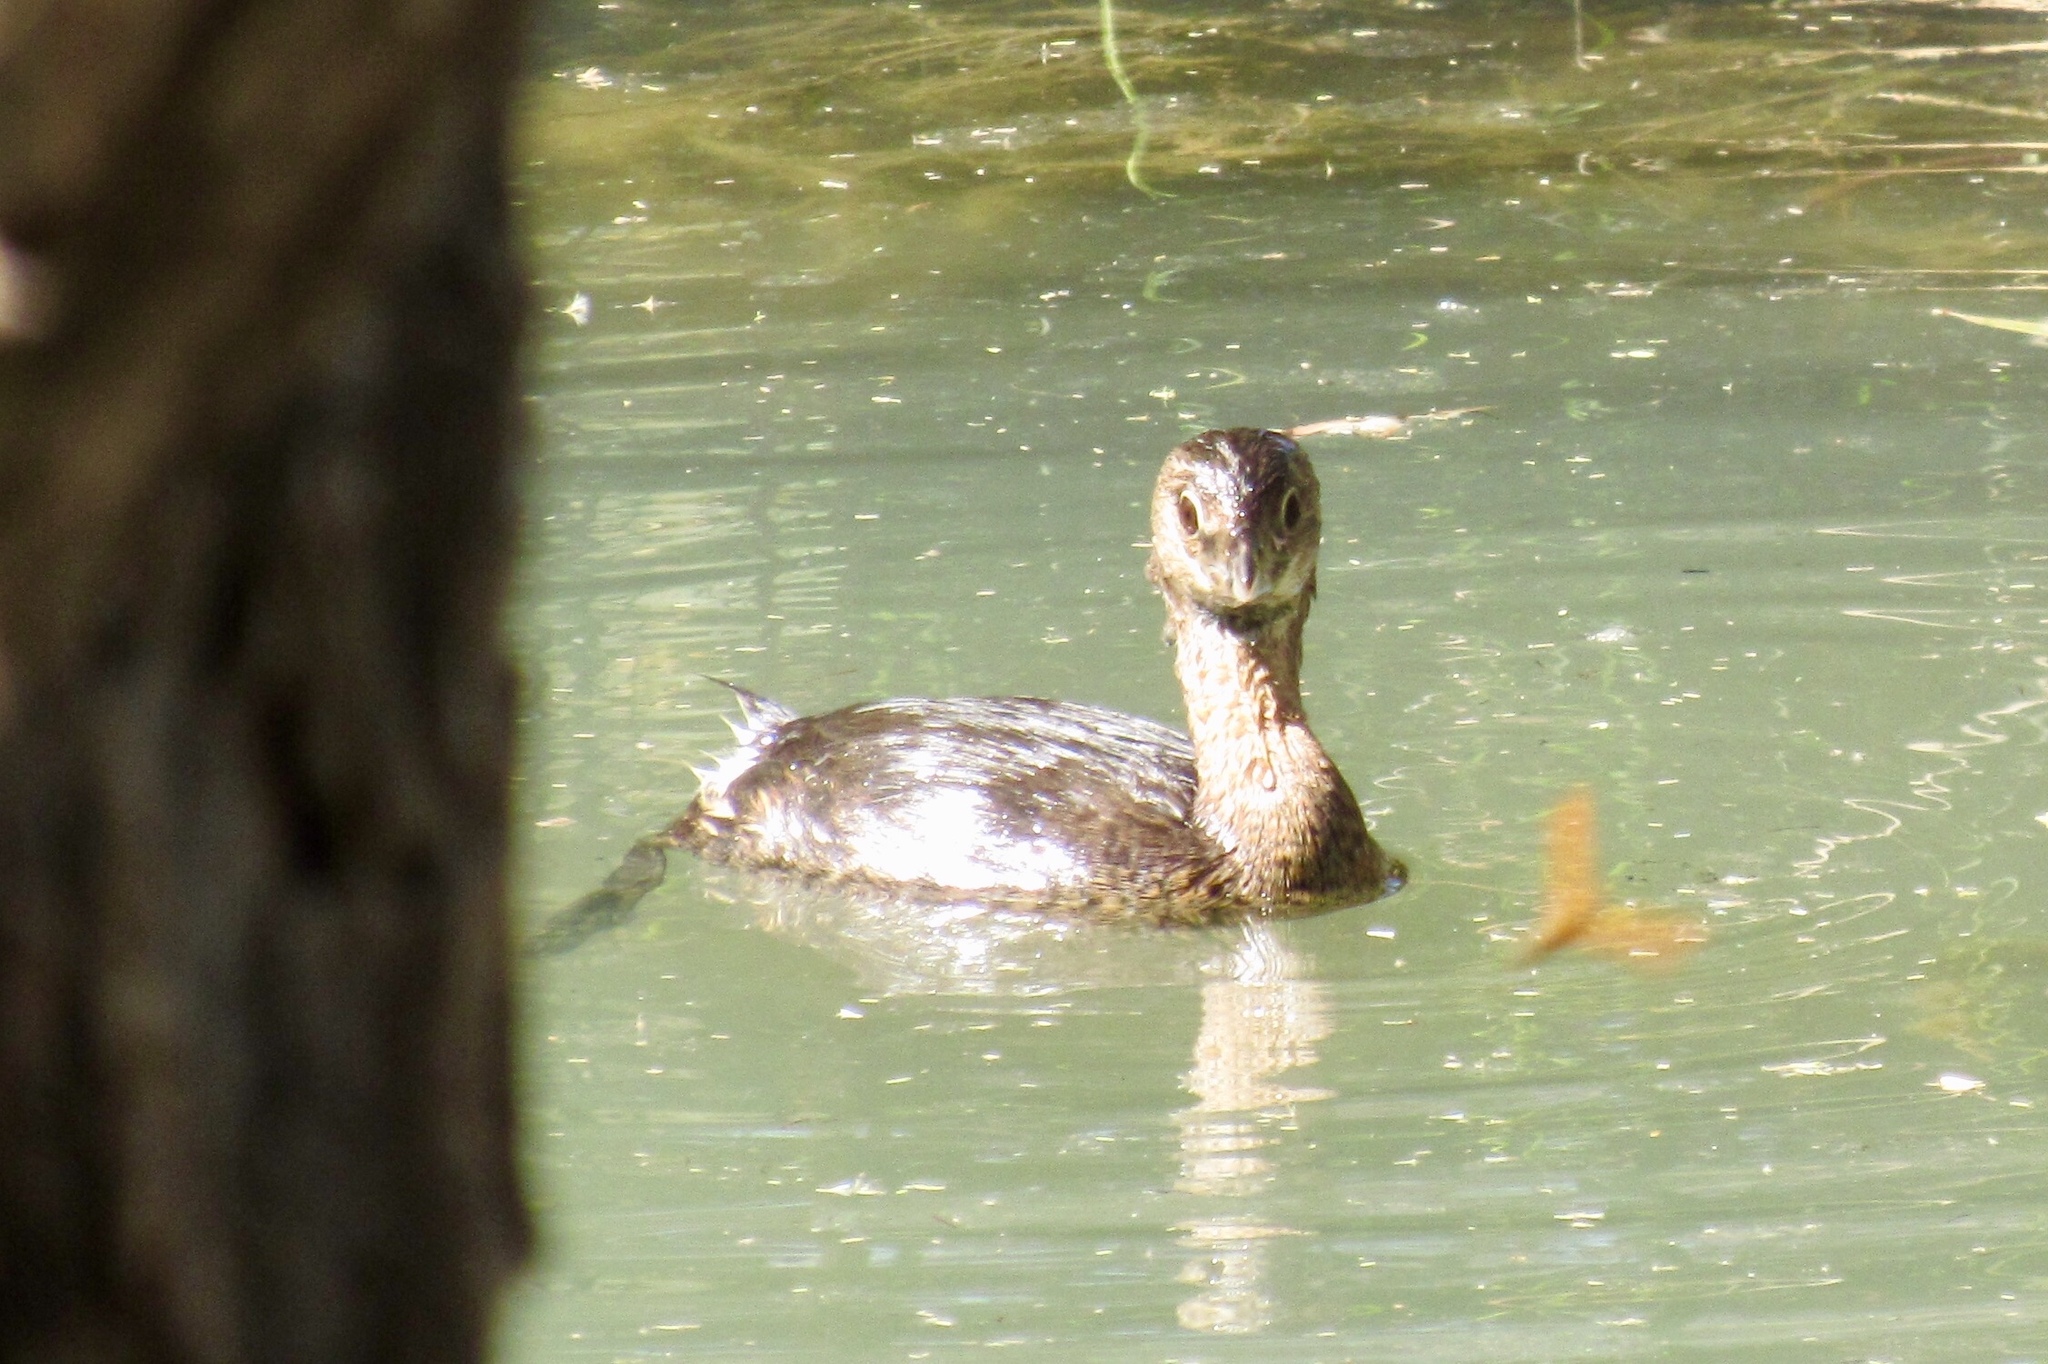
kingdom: Animalia
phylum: Chordata
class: Aves
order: Podicipediformes
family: Podicipedidae
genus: Podilymbus
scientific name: Podilymbus podiceps
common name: Pied-billed grebe
